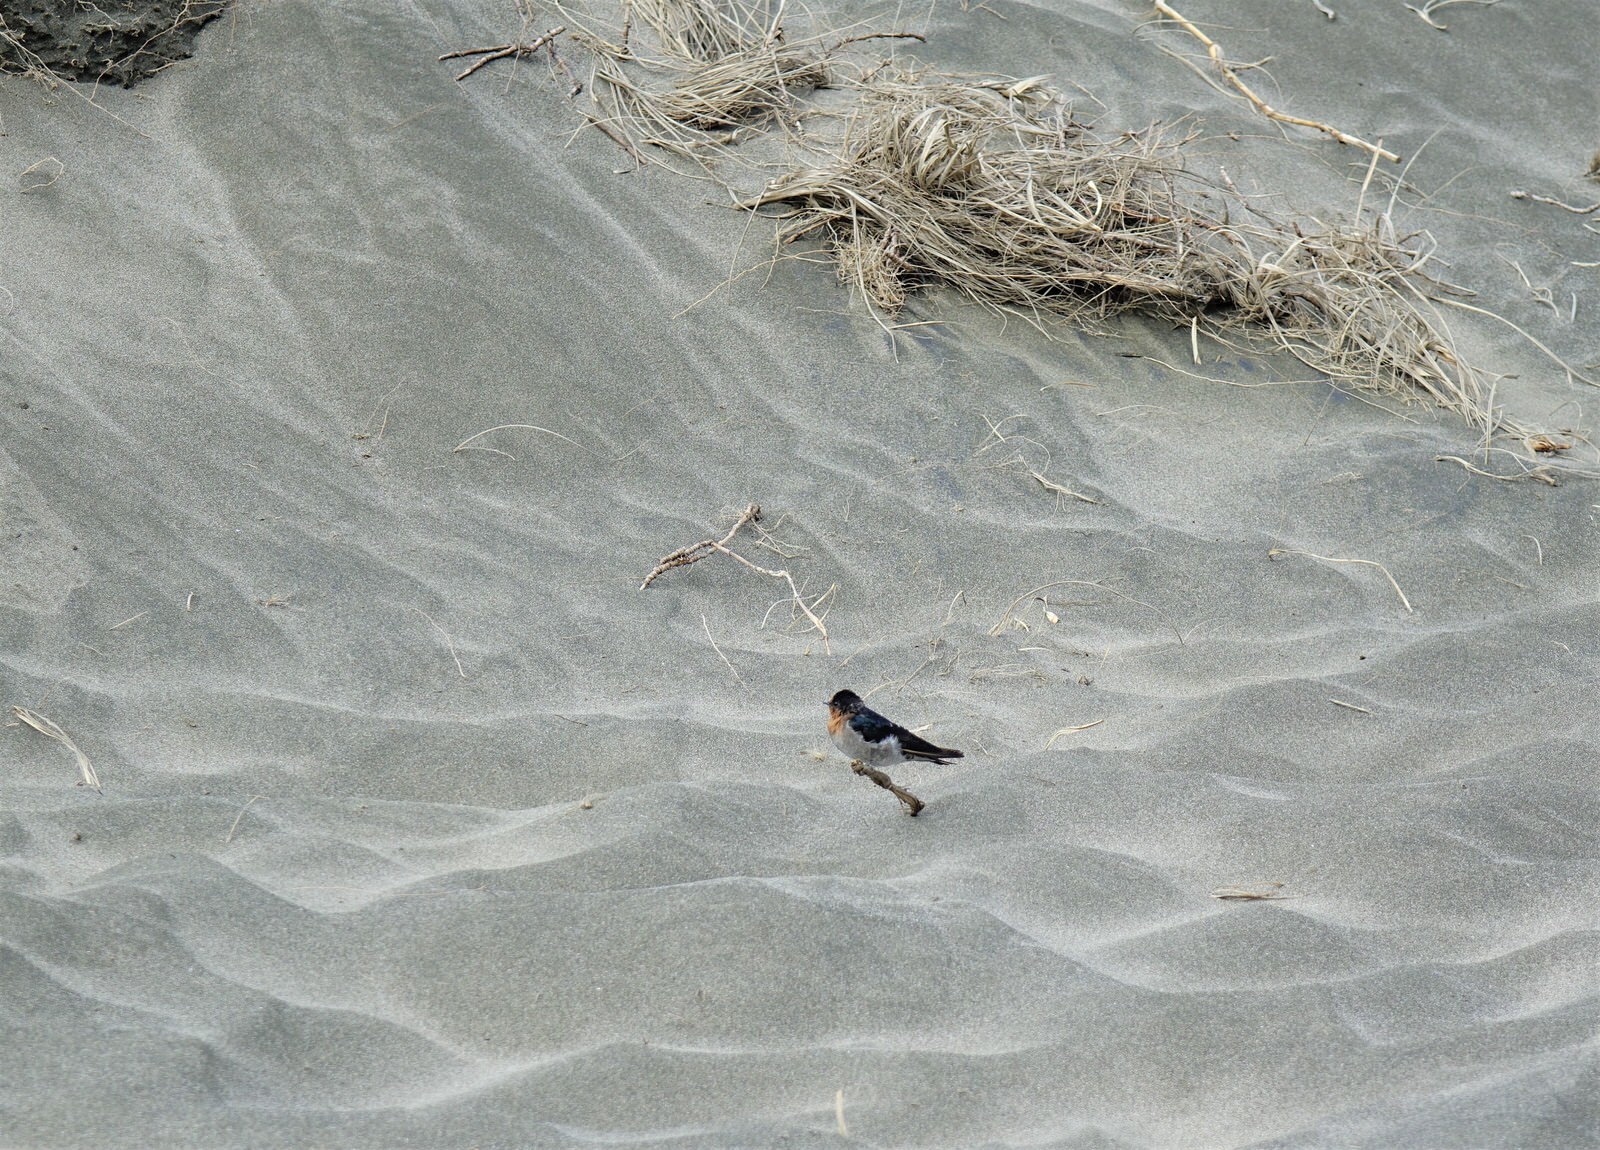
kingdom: Animalia
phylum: Chordata
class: Aves
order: Passeriformes
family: Hirundinidae
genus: Hirundo
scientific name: Hirundo neoxena
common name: Welcome swallow
